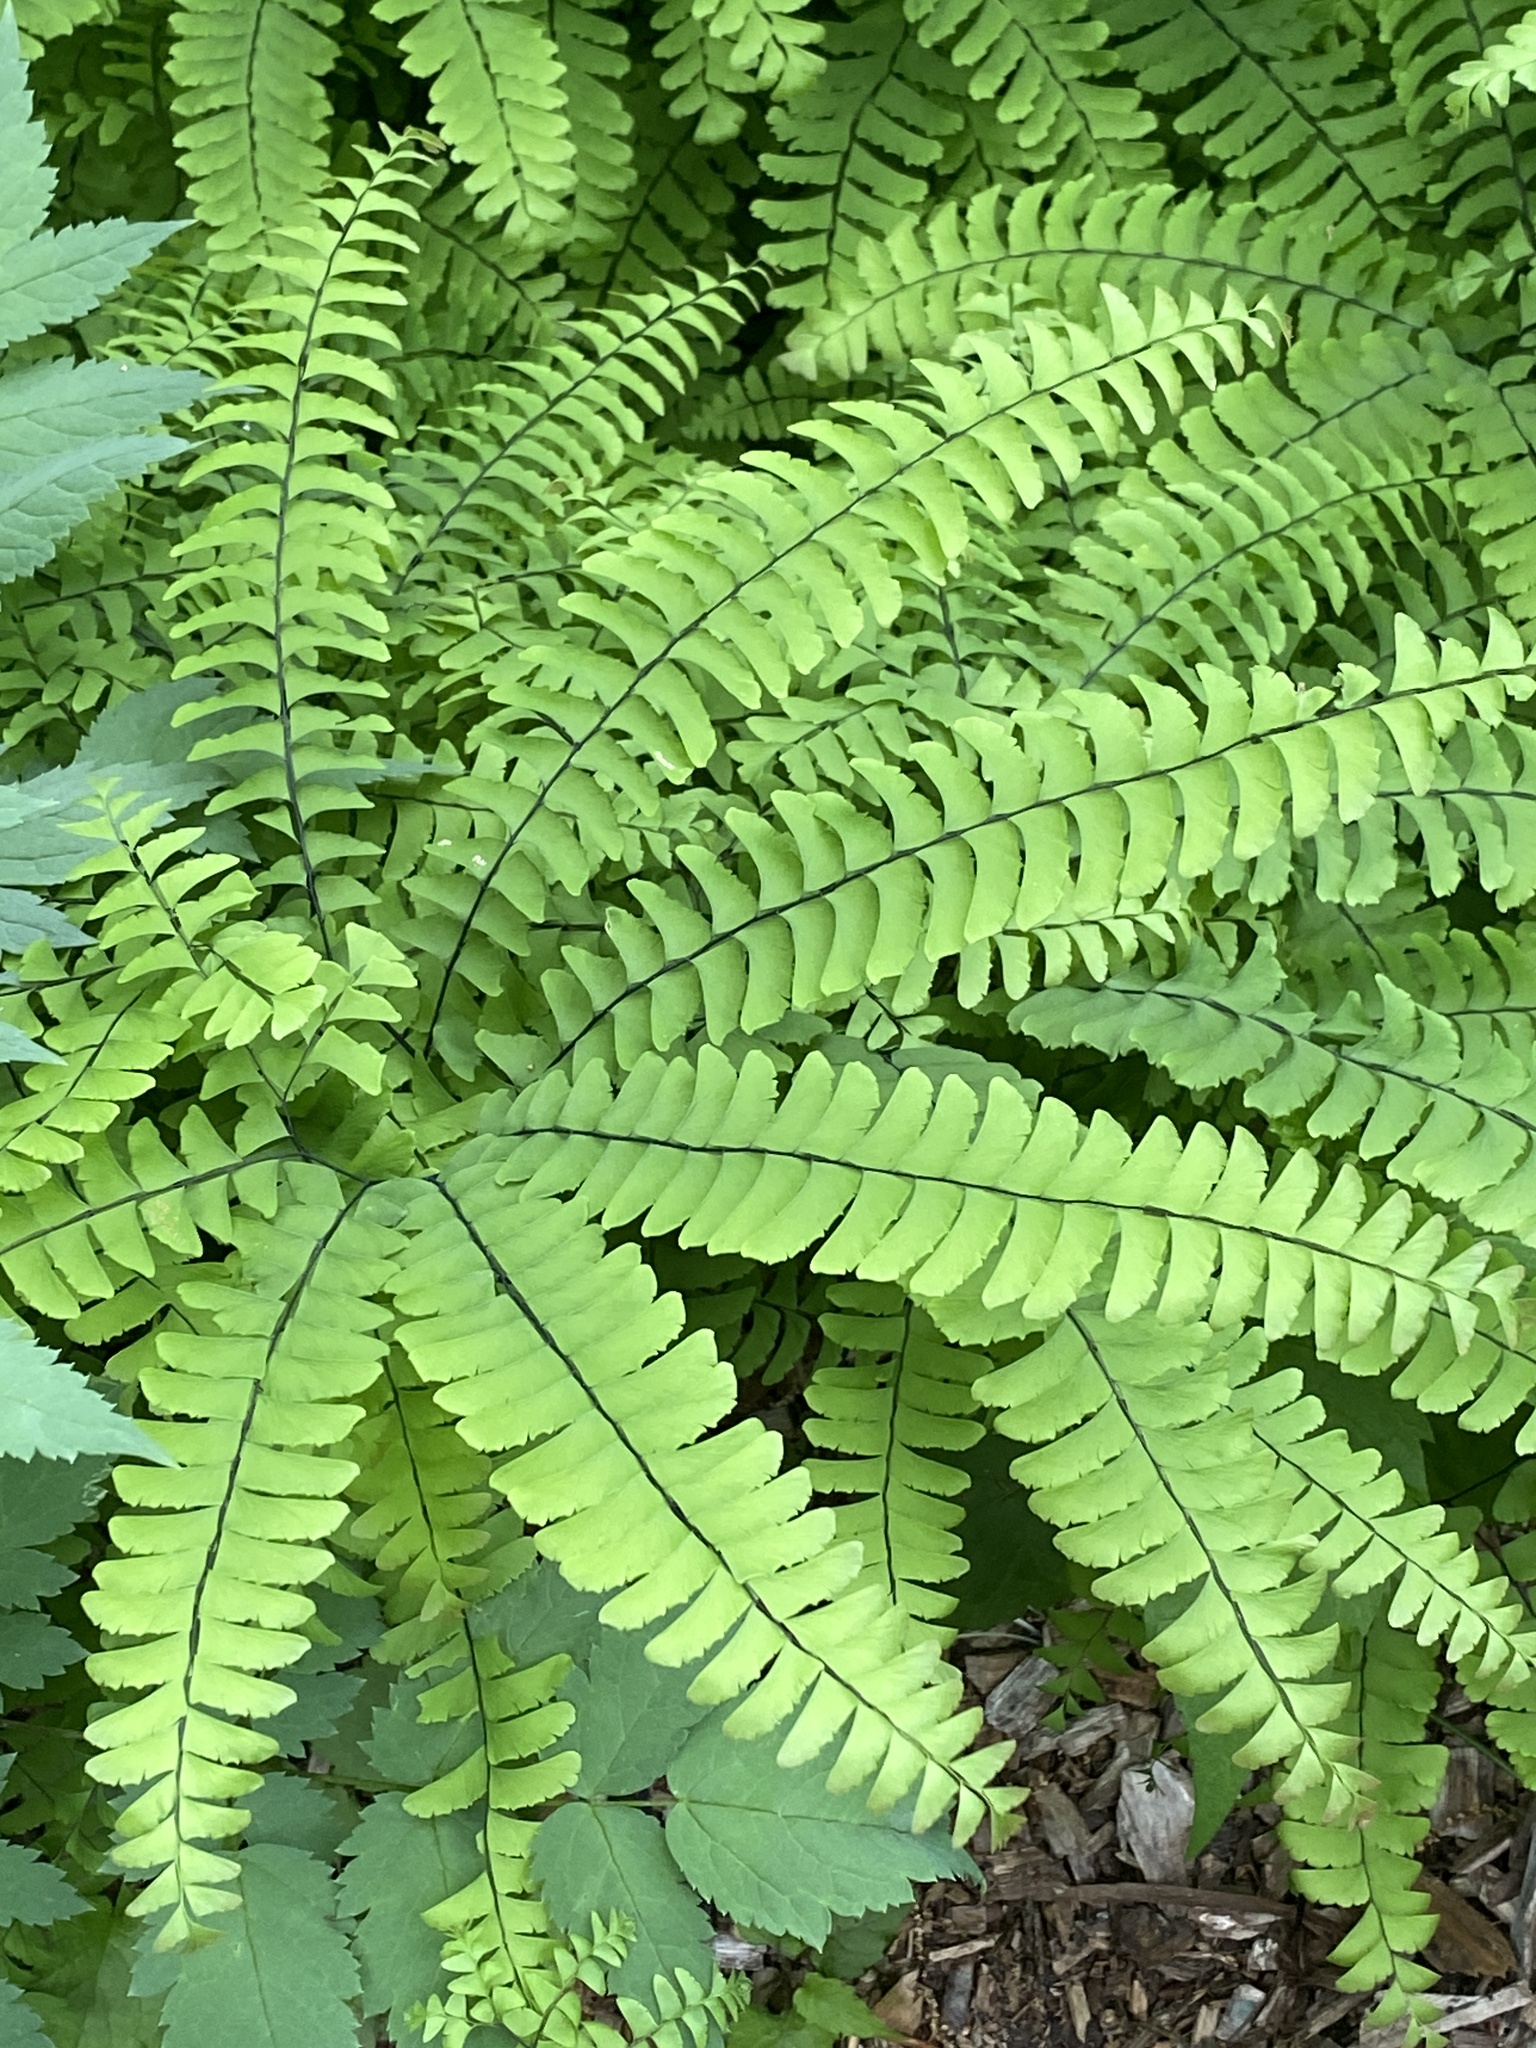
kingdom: Plantae
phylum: Tracheophyta
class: Polypodiopsida
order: Polypodiales
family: Pteridaceae
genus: Adiantum
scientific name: Adiantum pedatum
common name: Five-finger fern
